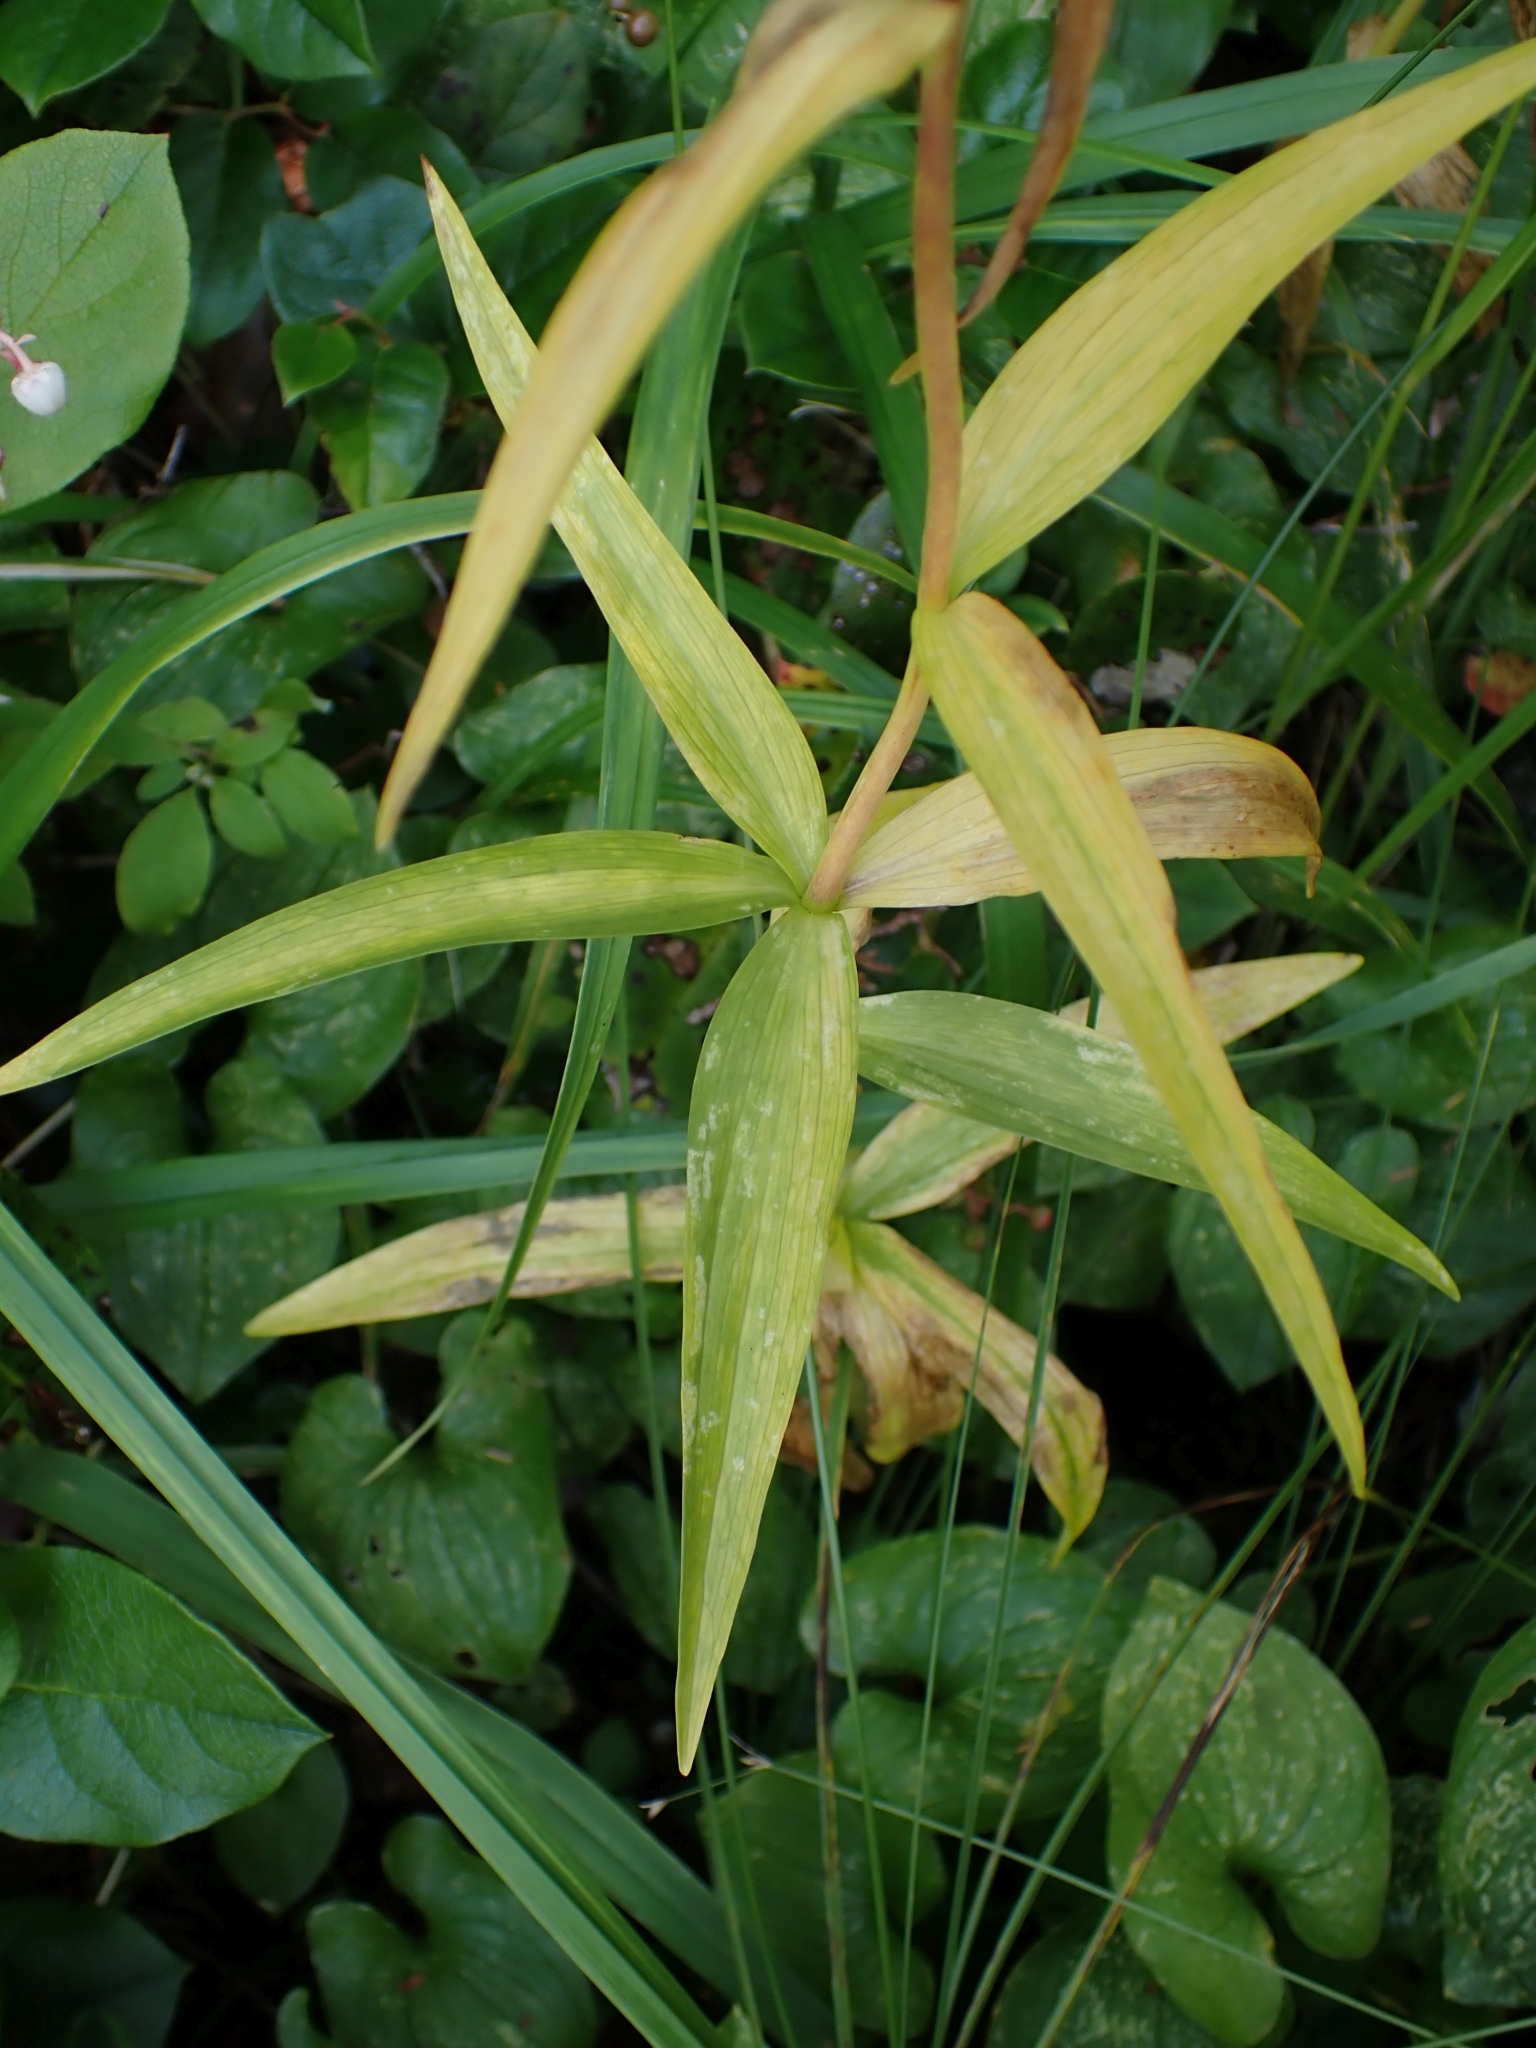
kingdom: Plantae
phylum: Tracheophyta
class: Liliopsida
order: Liliales
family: Liliaceae
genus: Fritillaria
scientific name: Fritillaria camschatcensis
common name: Kamchatka fritillary
